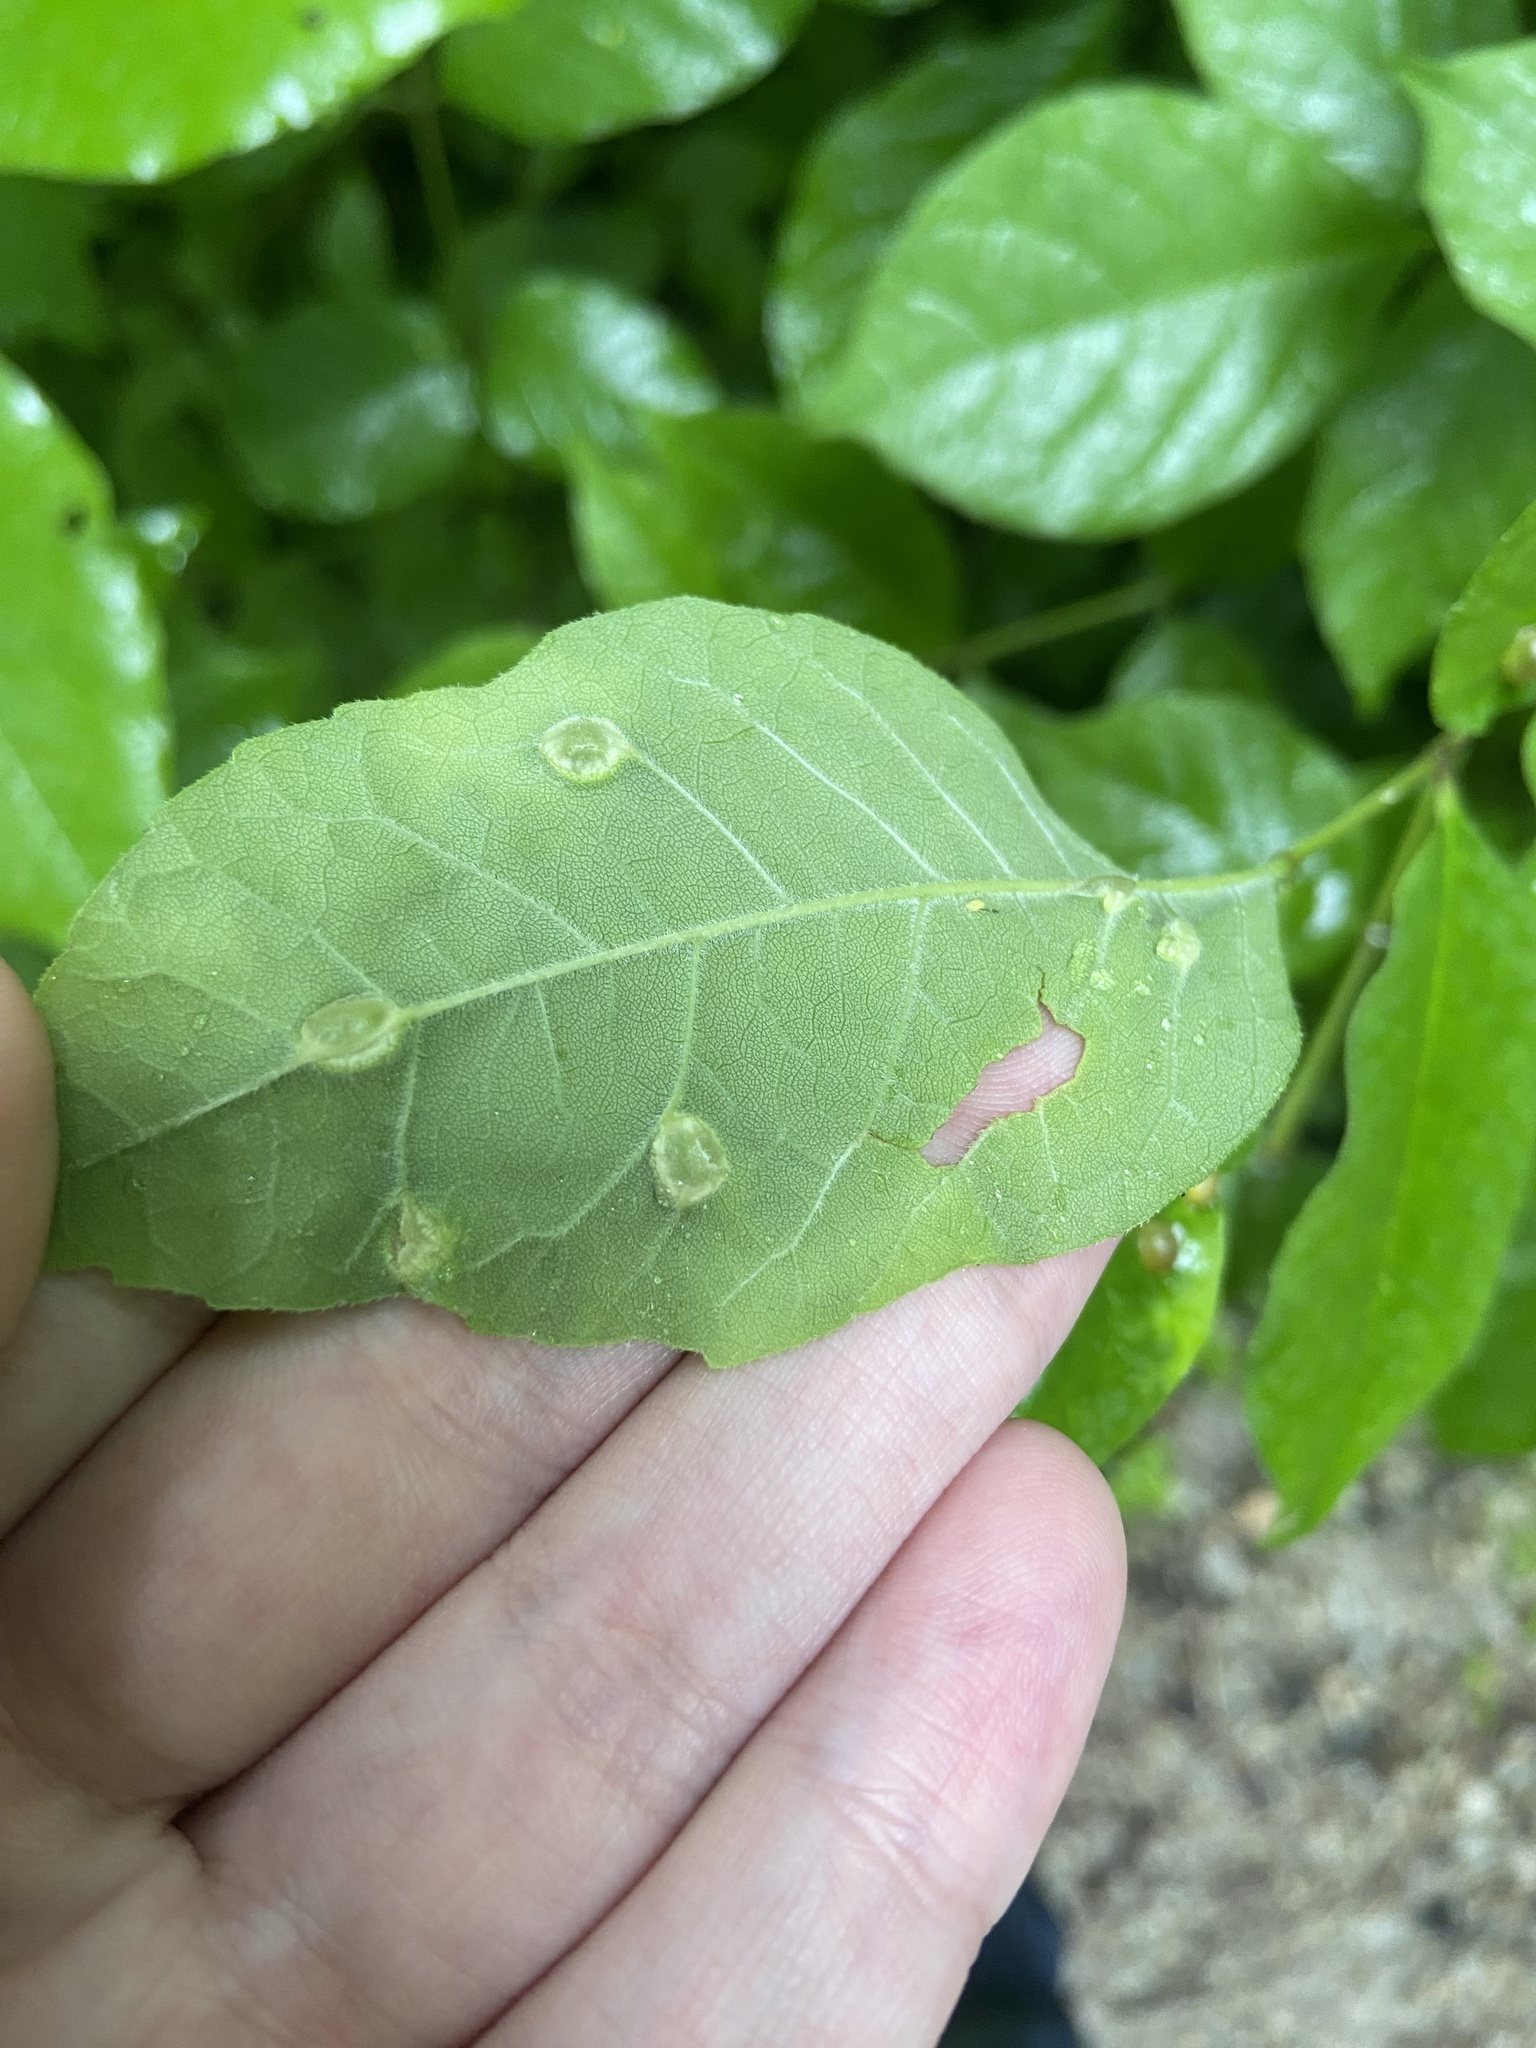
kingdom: Animalia
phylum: Arthropoda
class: Insecta
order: Diptera
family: Cecidomyiidae
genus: Dasineura
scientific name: Dasineura pellex
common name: Ash bullet gall midge
